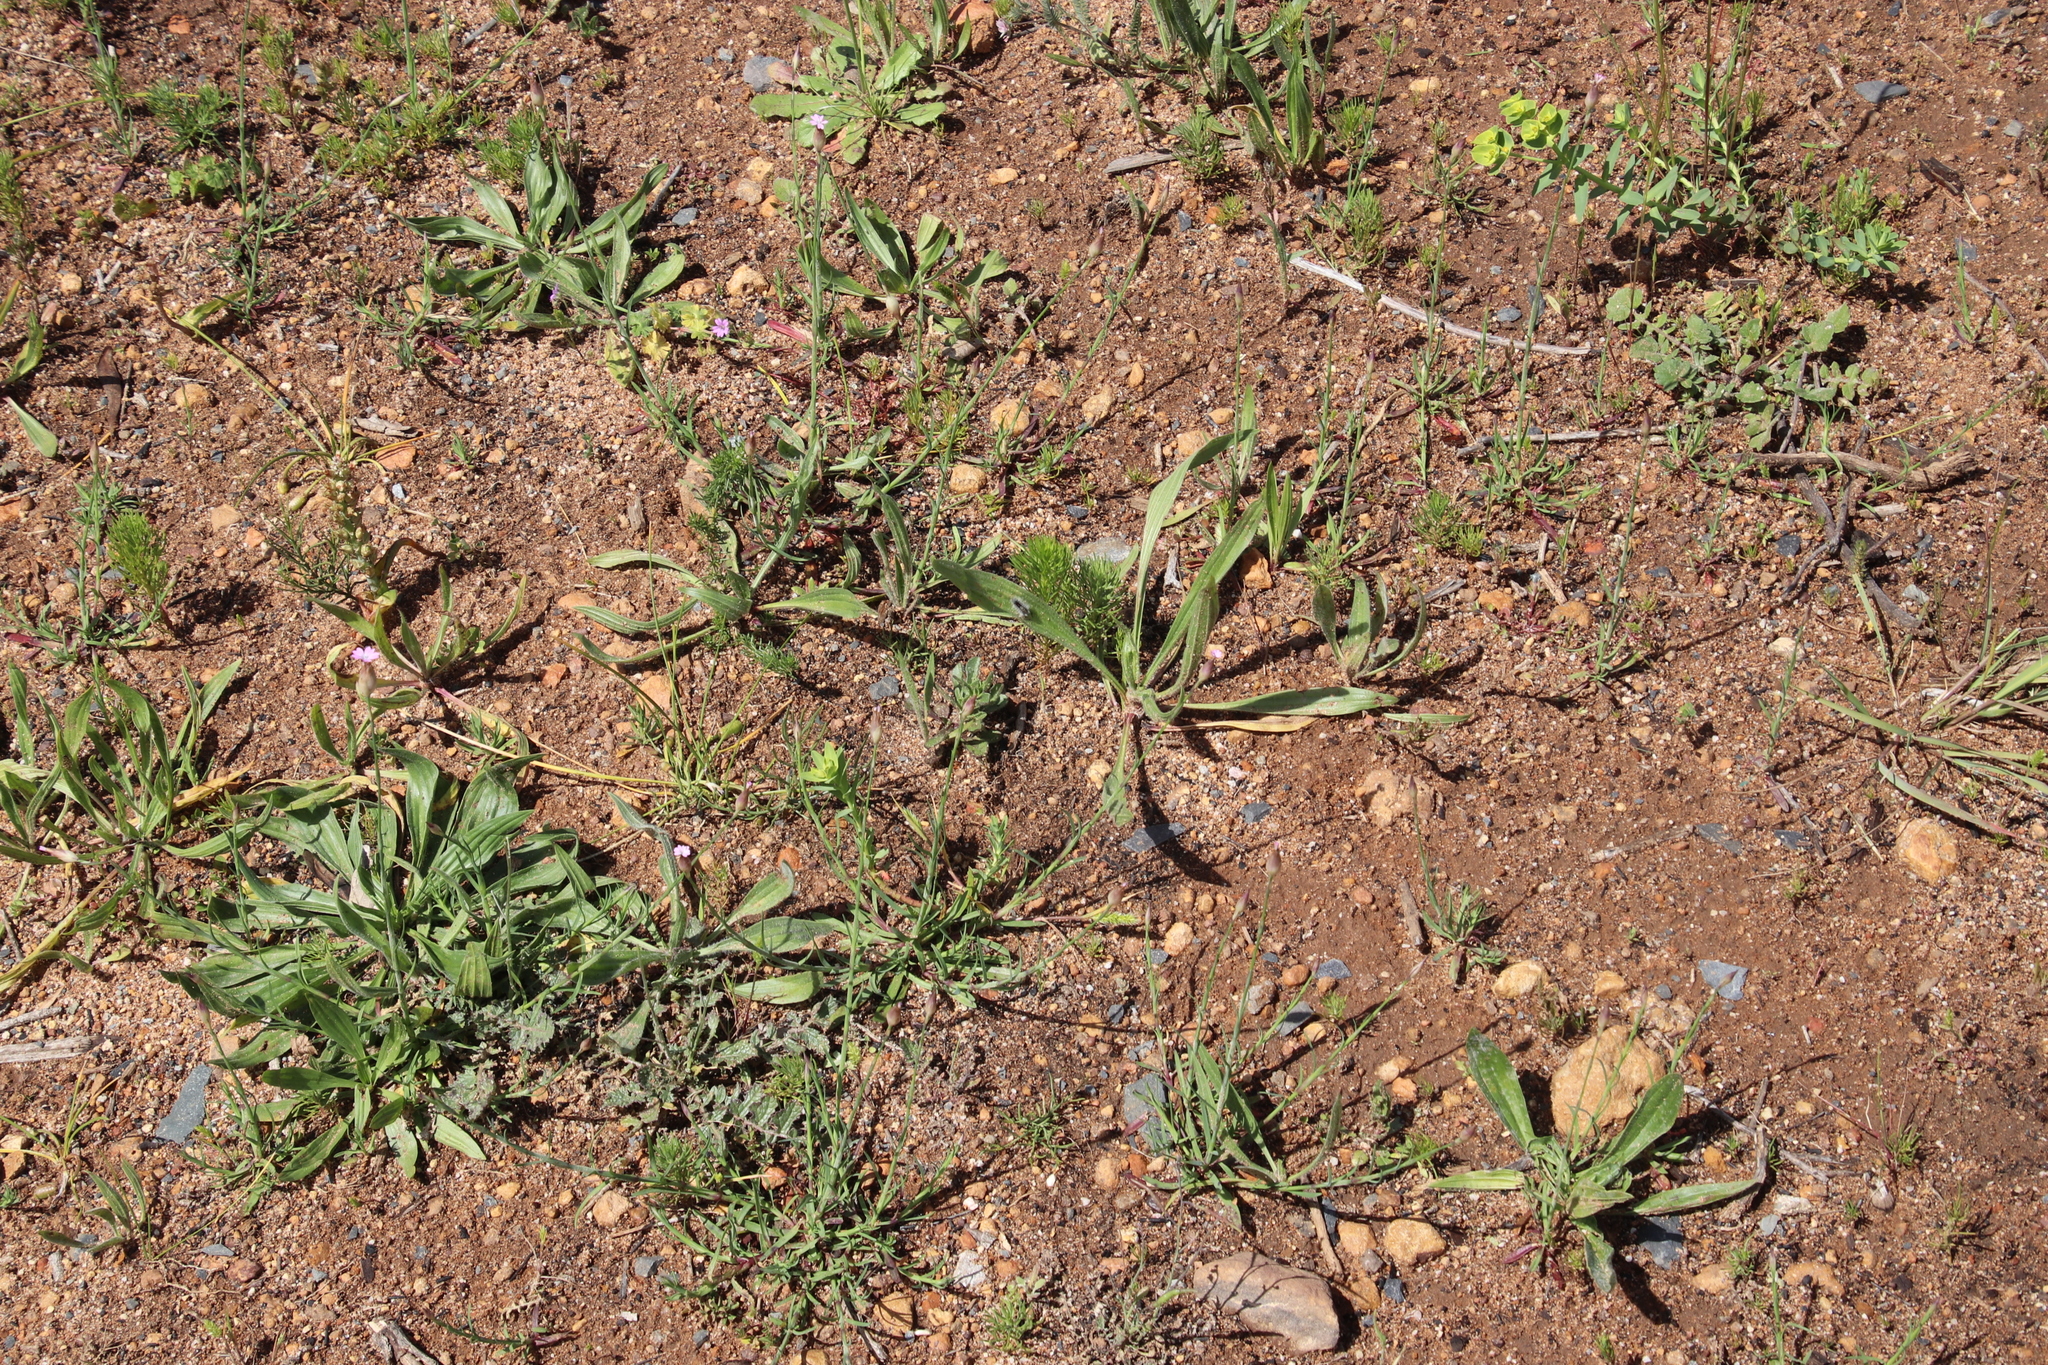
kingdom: Plantae
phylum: Tracheophyta
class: Magnoliopsida
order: Caryophyllales
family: Caryophyllaceae
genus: Petrorhagia
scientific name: Petrorhagia prolifera
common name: Proliferous pink
